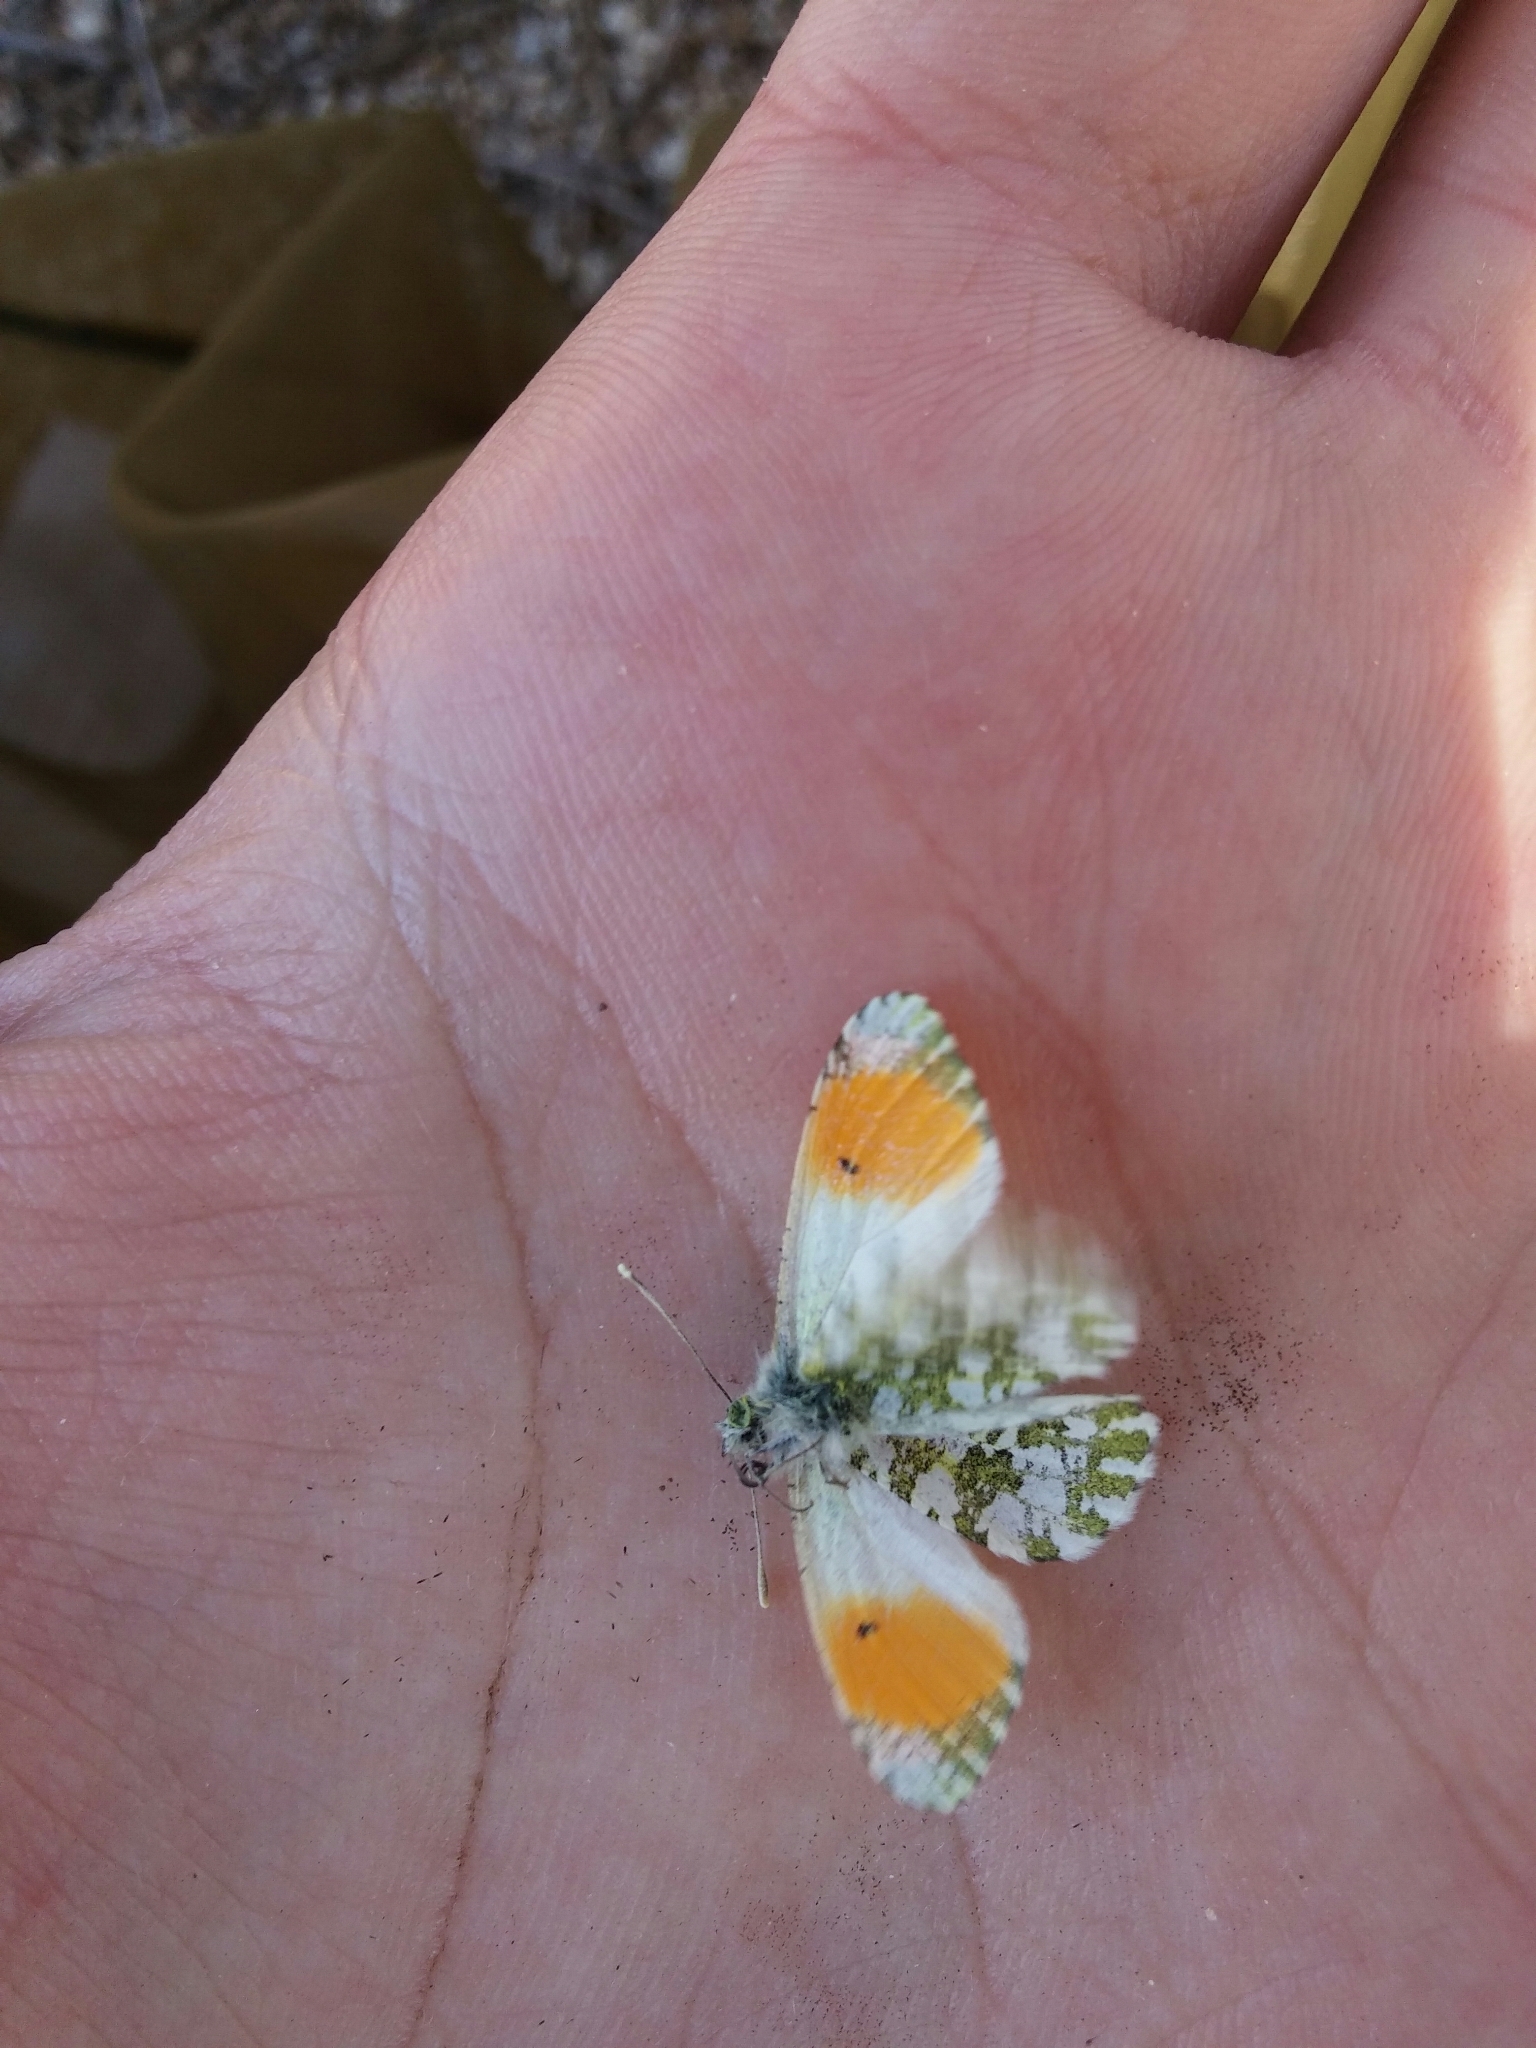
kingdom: Animalia
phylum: Arthropoda
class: Insecta
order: Lepidoptera
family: Pieridae
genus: Anthocharis
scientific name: Anthocharis cardamines
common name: Orange-tip
